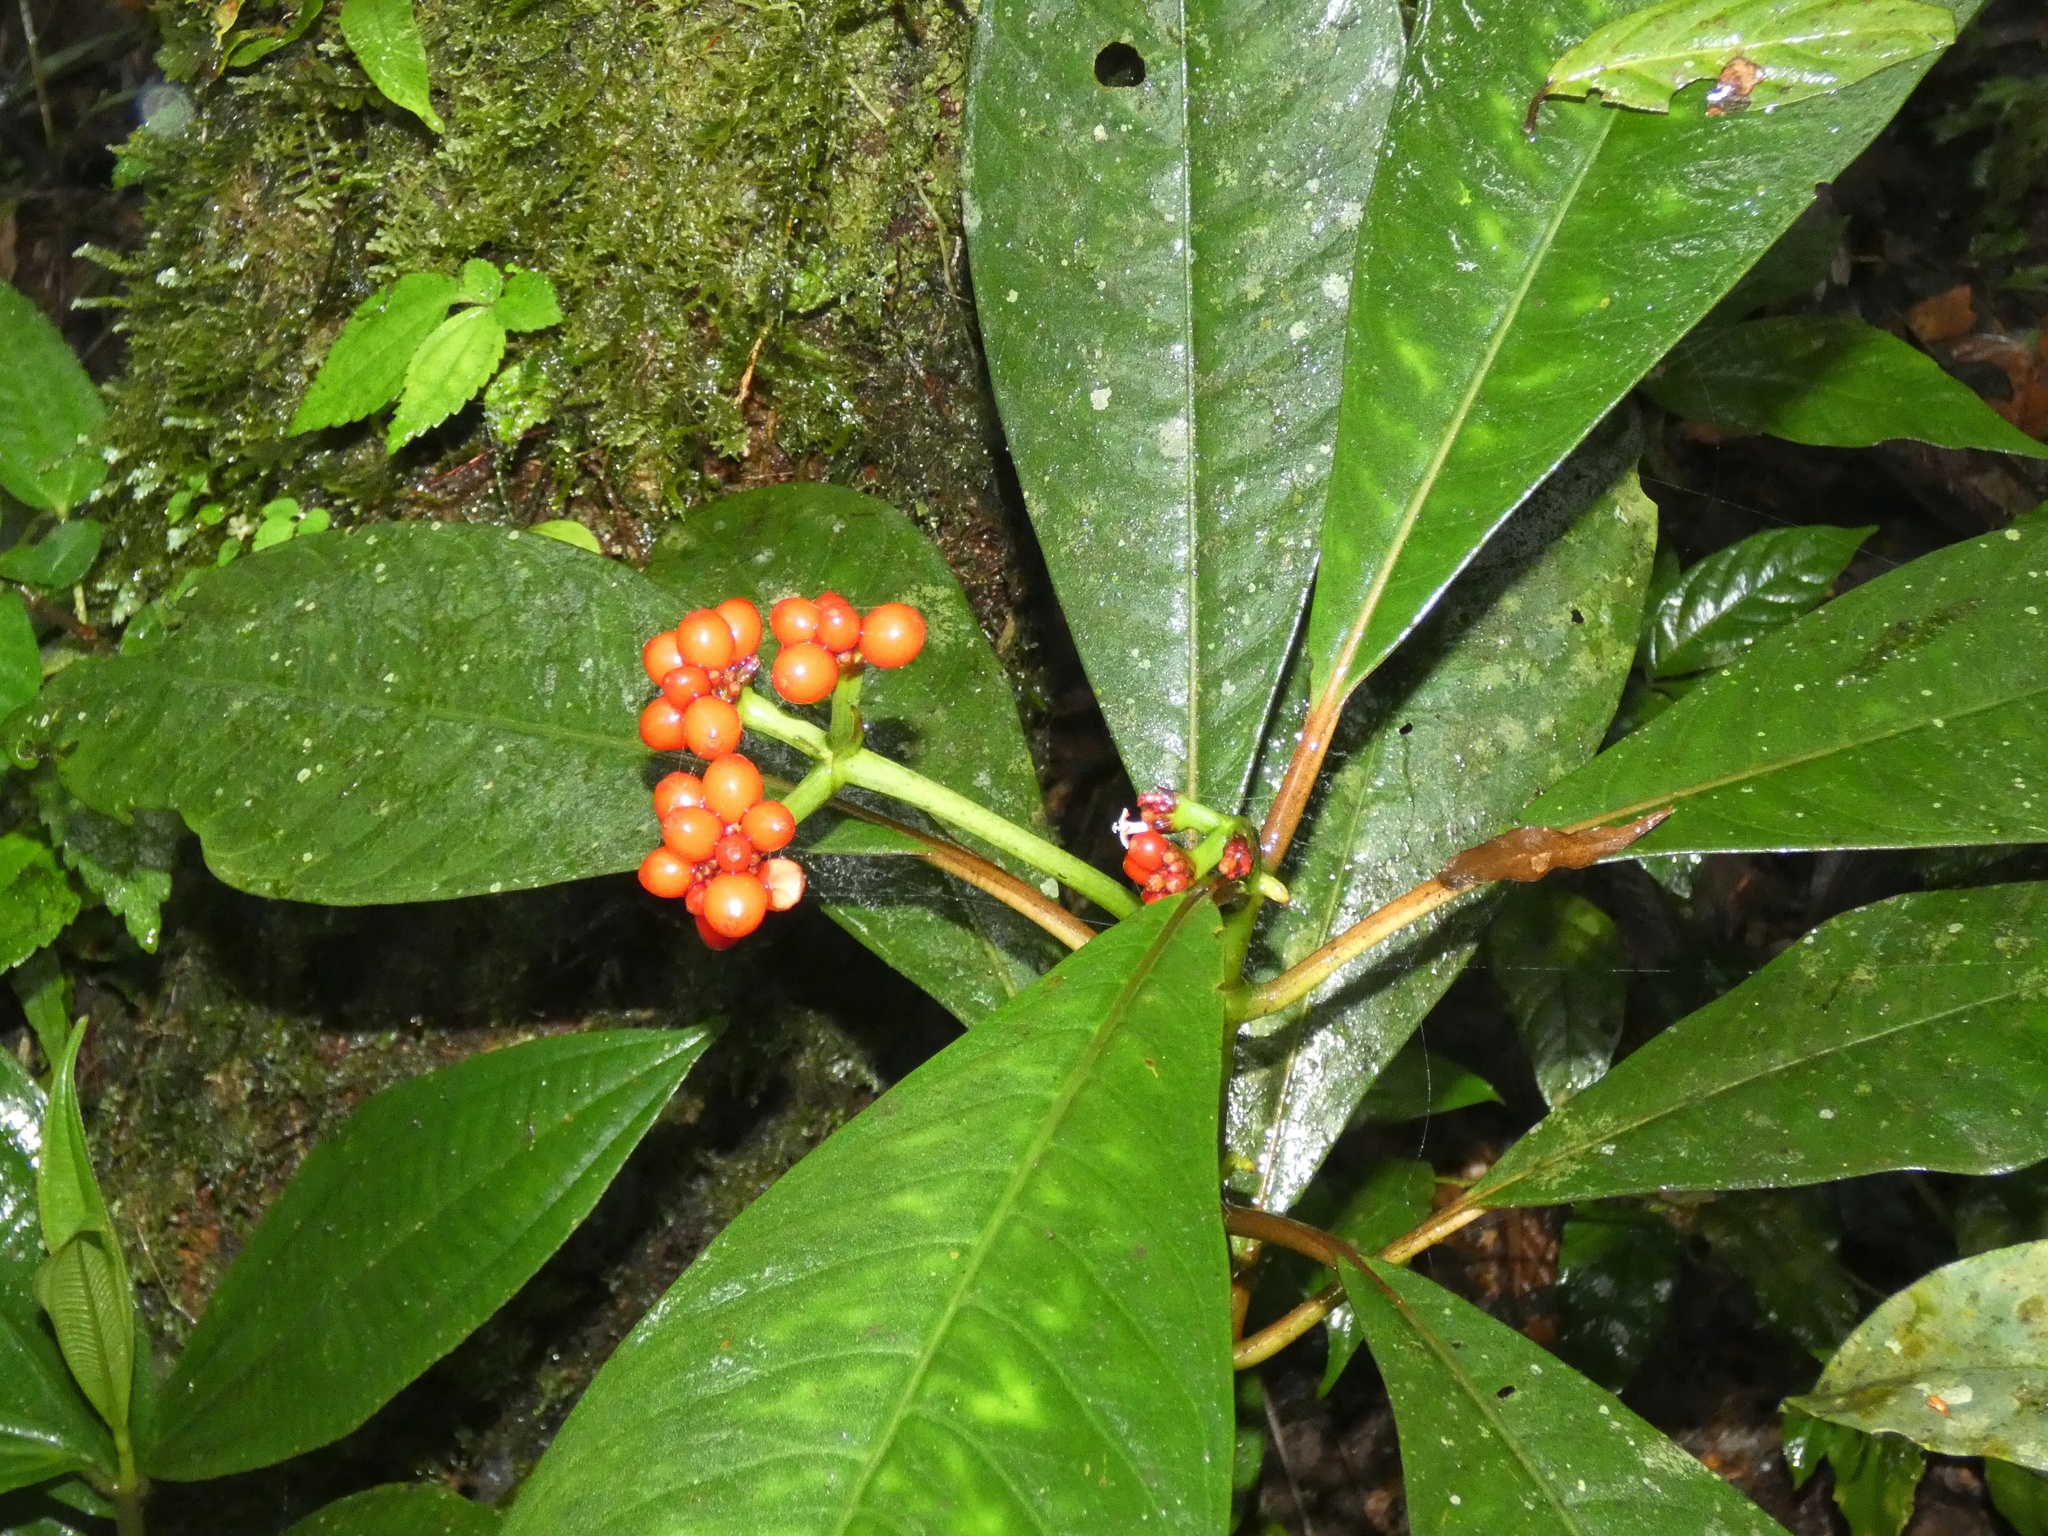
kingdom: Plantae
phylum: Tracheophyta
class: Magnoliopsida
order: Gentianales
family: Rubiaceae
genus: Notopleura
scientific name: Notopleura uliginosa
